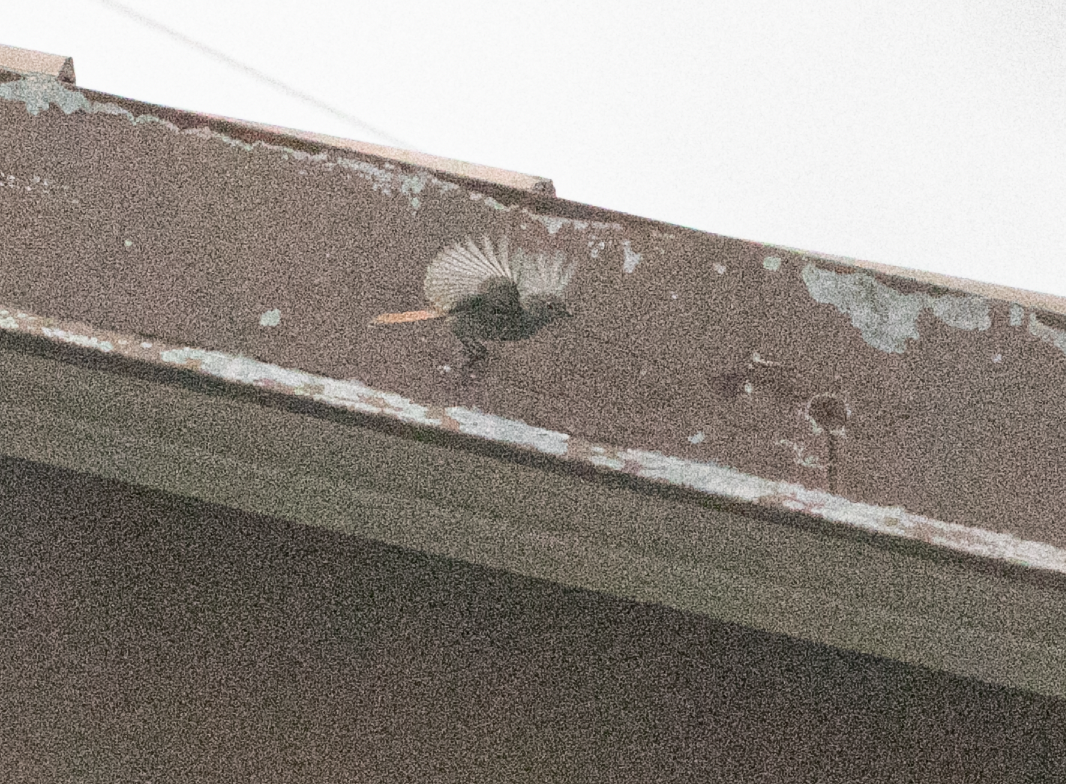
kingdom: Animalia
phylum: Chordata
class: Aves
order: Passeriformes
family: Muscicapidae
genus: Phoenicurus
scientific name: Phoenicurus ochruros
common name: Black redstart
